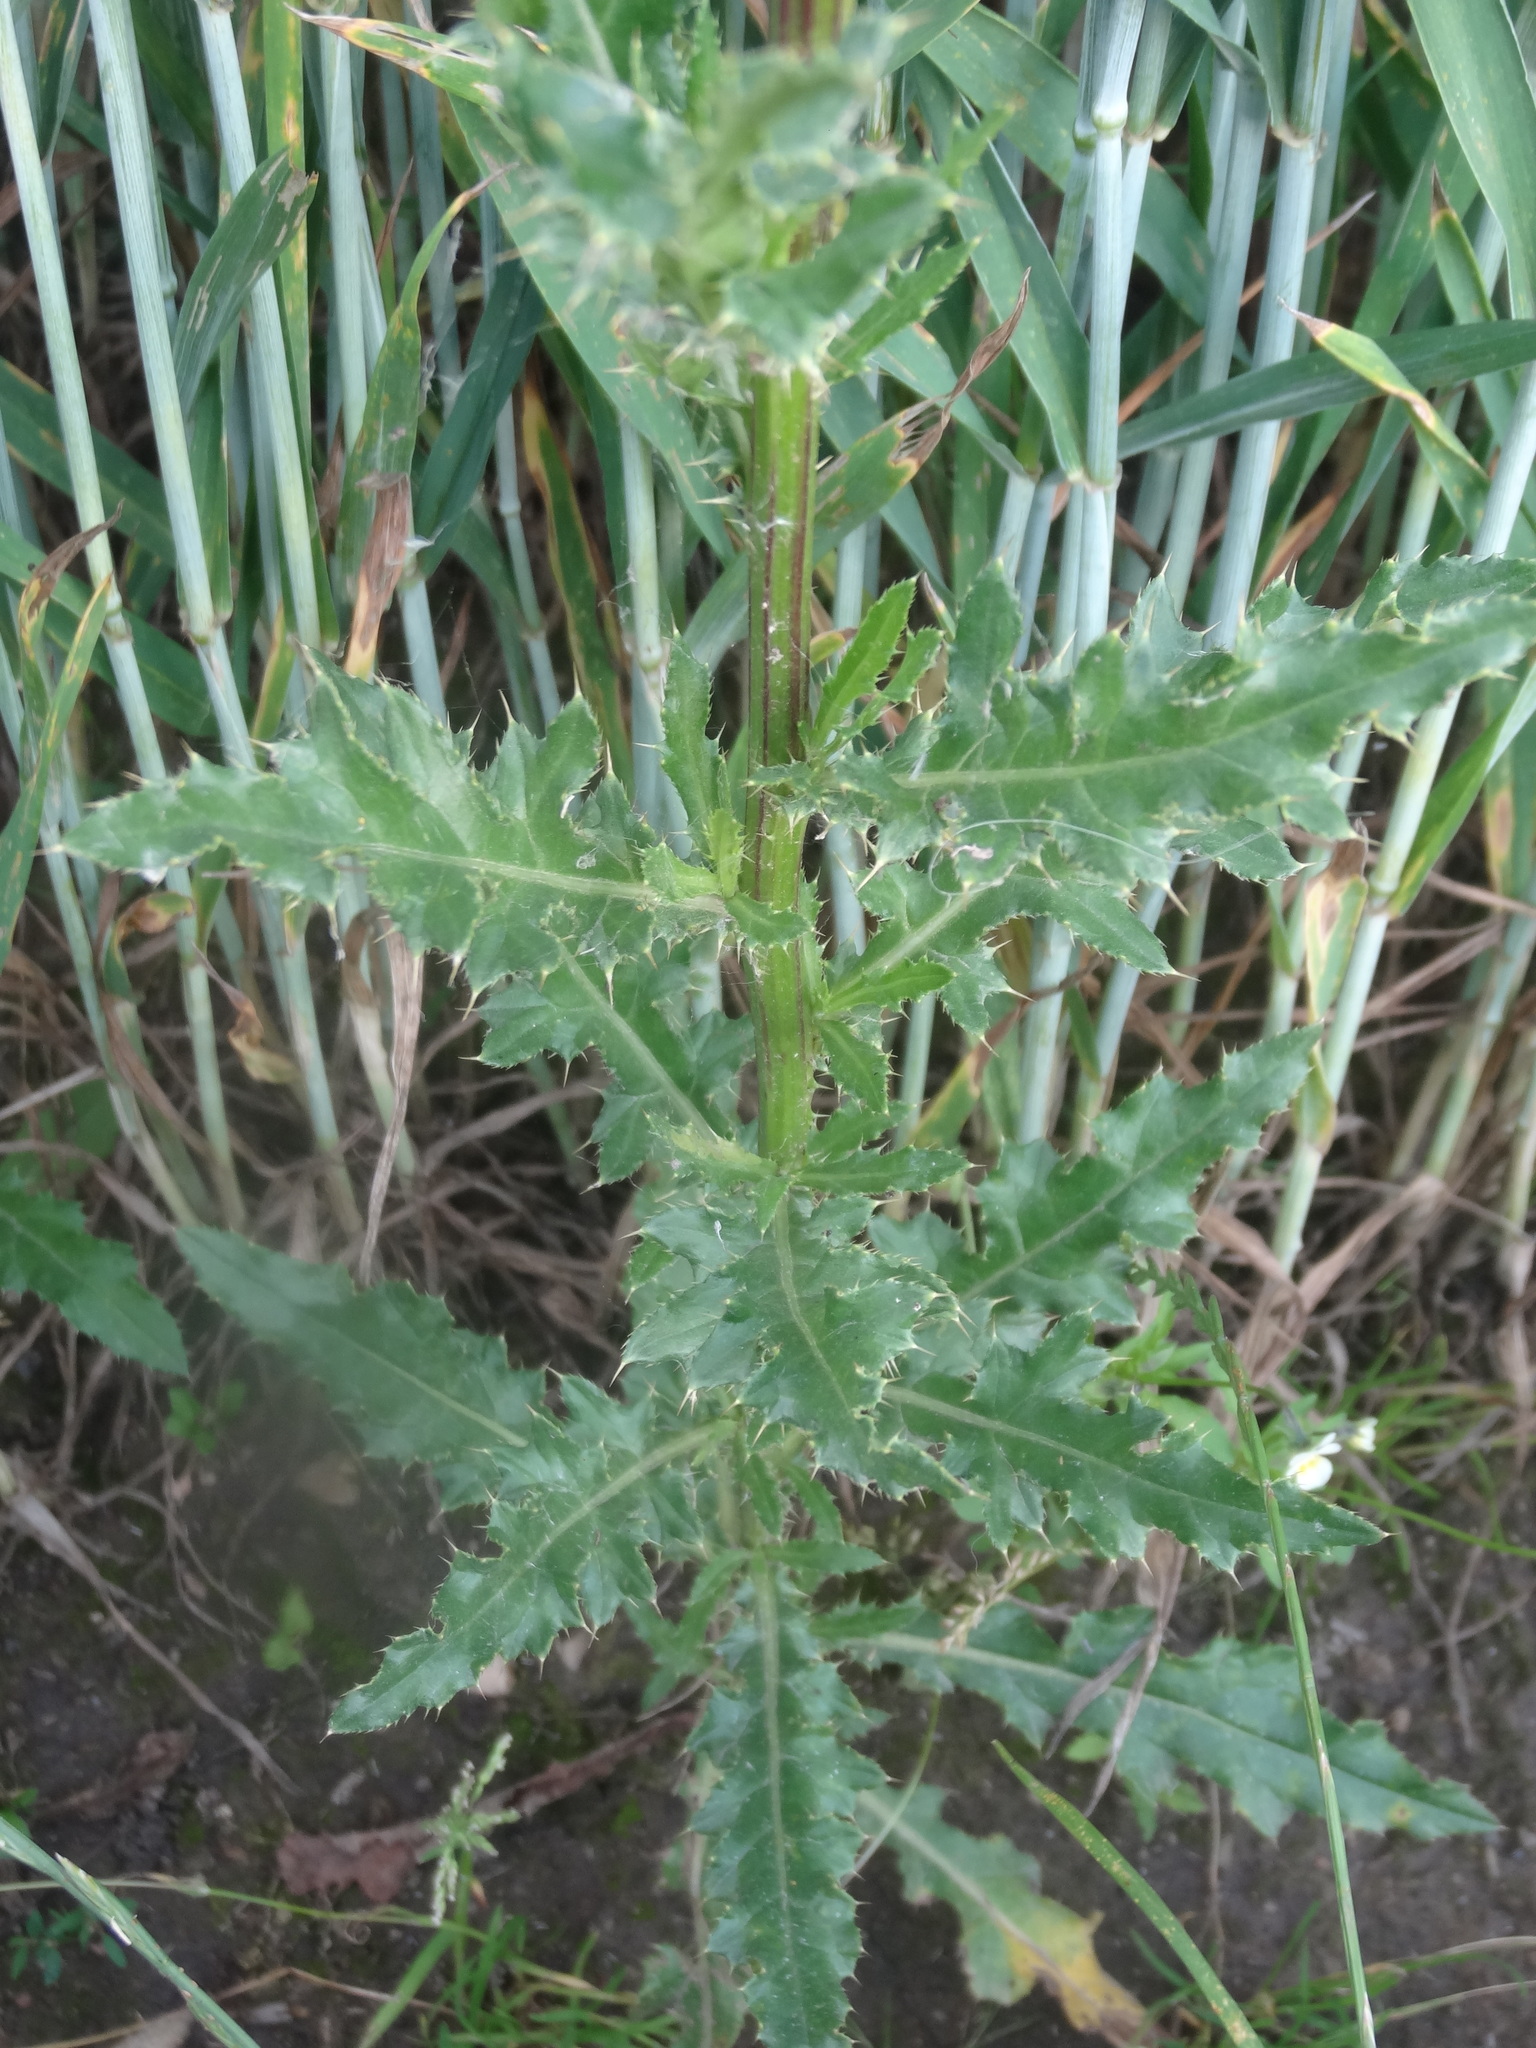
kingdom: Plantae
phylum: Tracheophyta
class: Magnoliopsida
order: Asterales
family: Asteraceae
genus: Cirsium
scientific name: Cirsium arvense
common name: Creeping thistle
